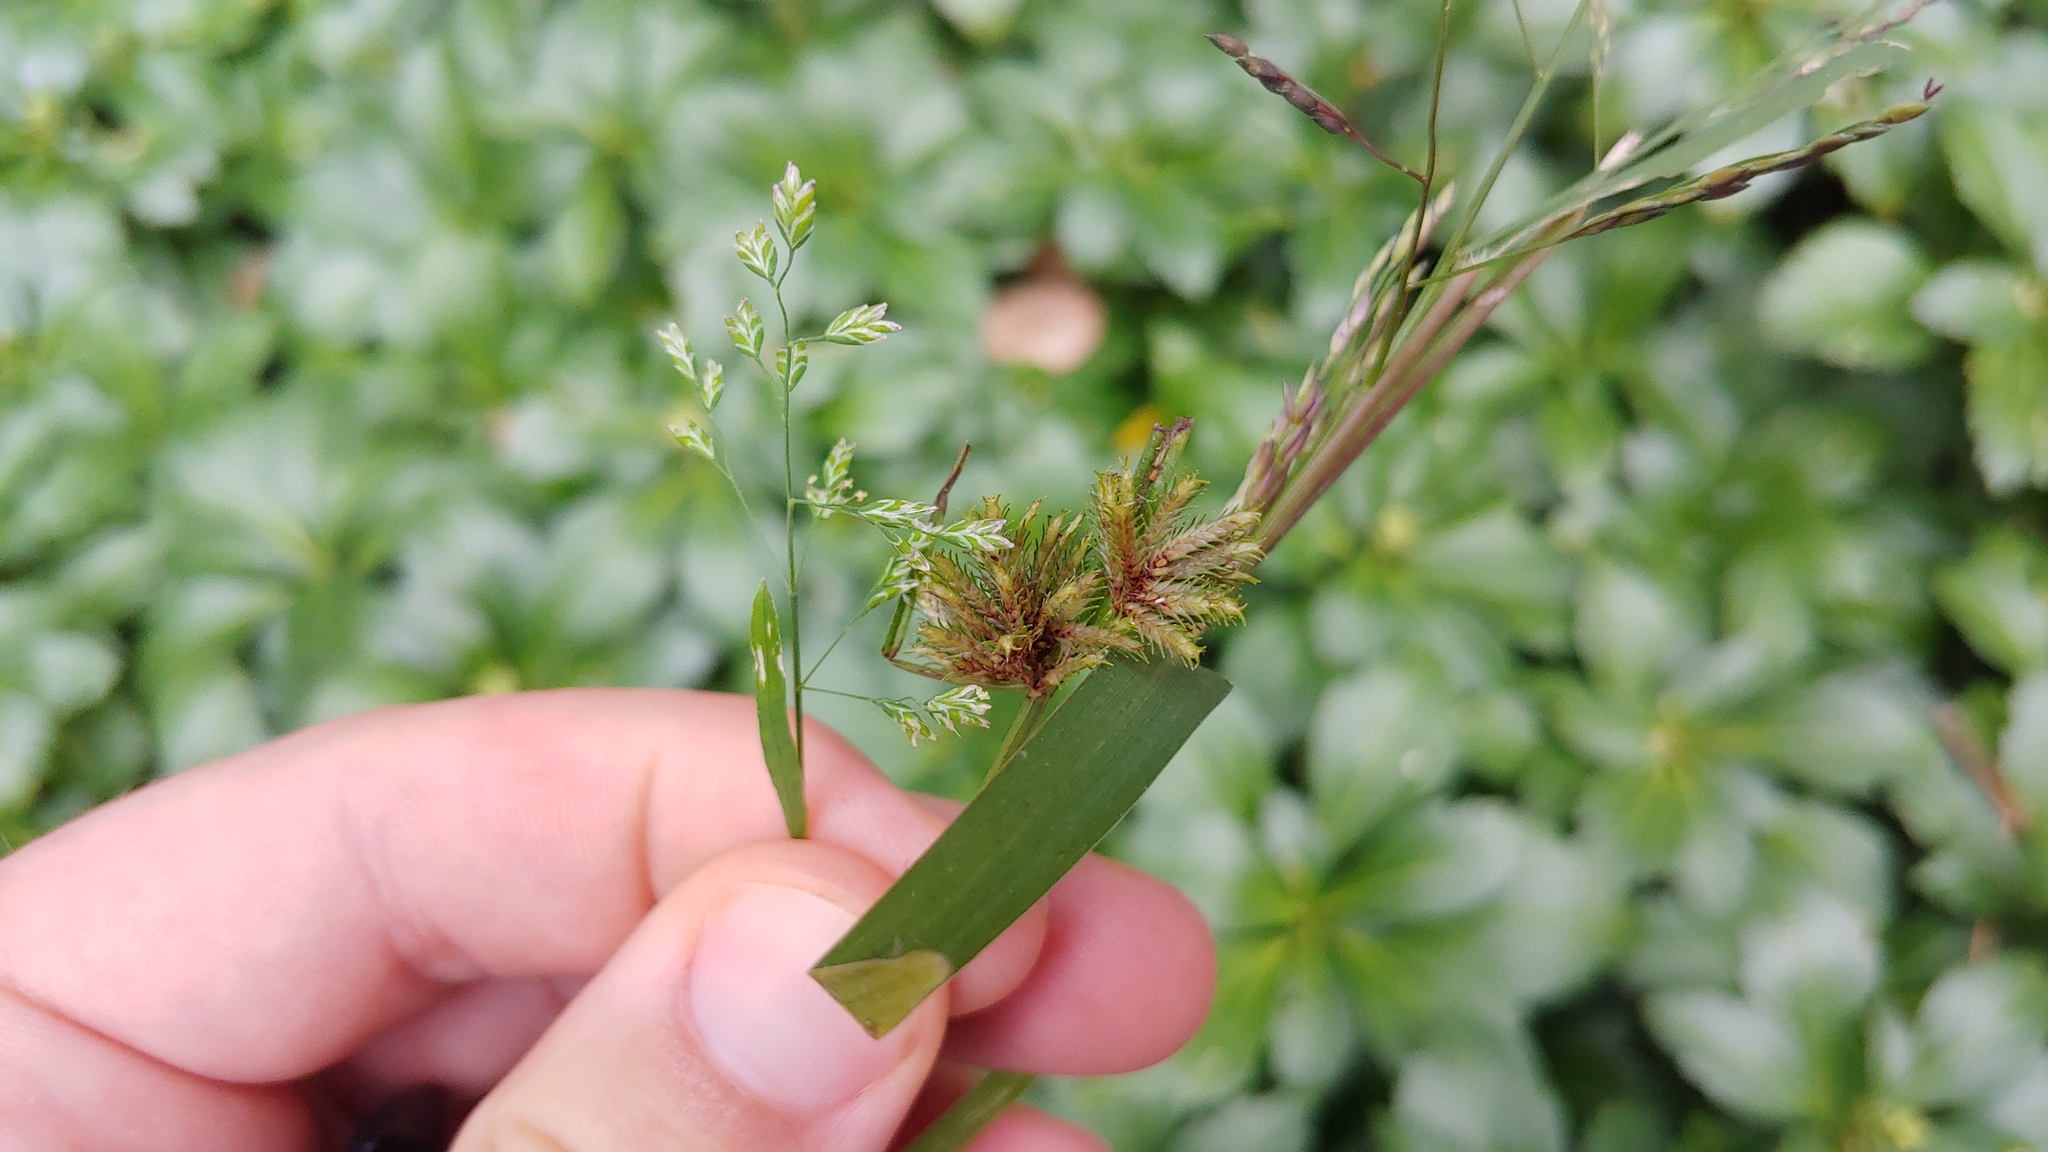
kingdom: Plantae
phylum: Tracheophyta
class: Liliopsida
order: Poales
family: Cyperaceae
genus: Cyperus
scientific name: Cyperus squarrosus
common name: Awned cyperus
